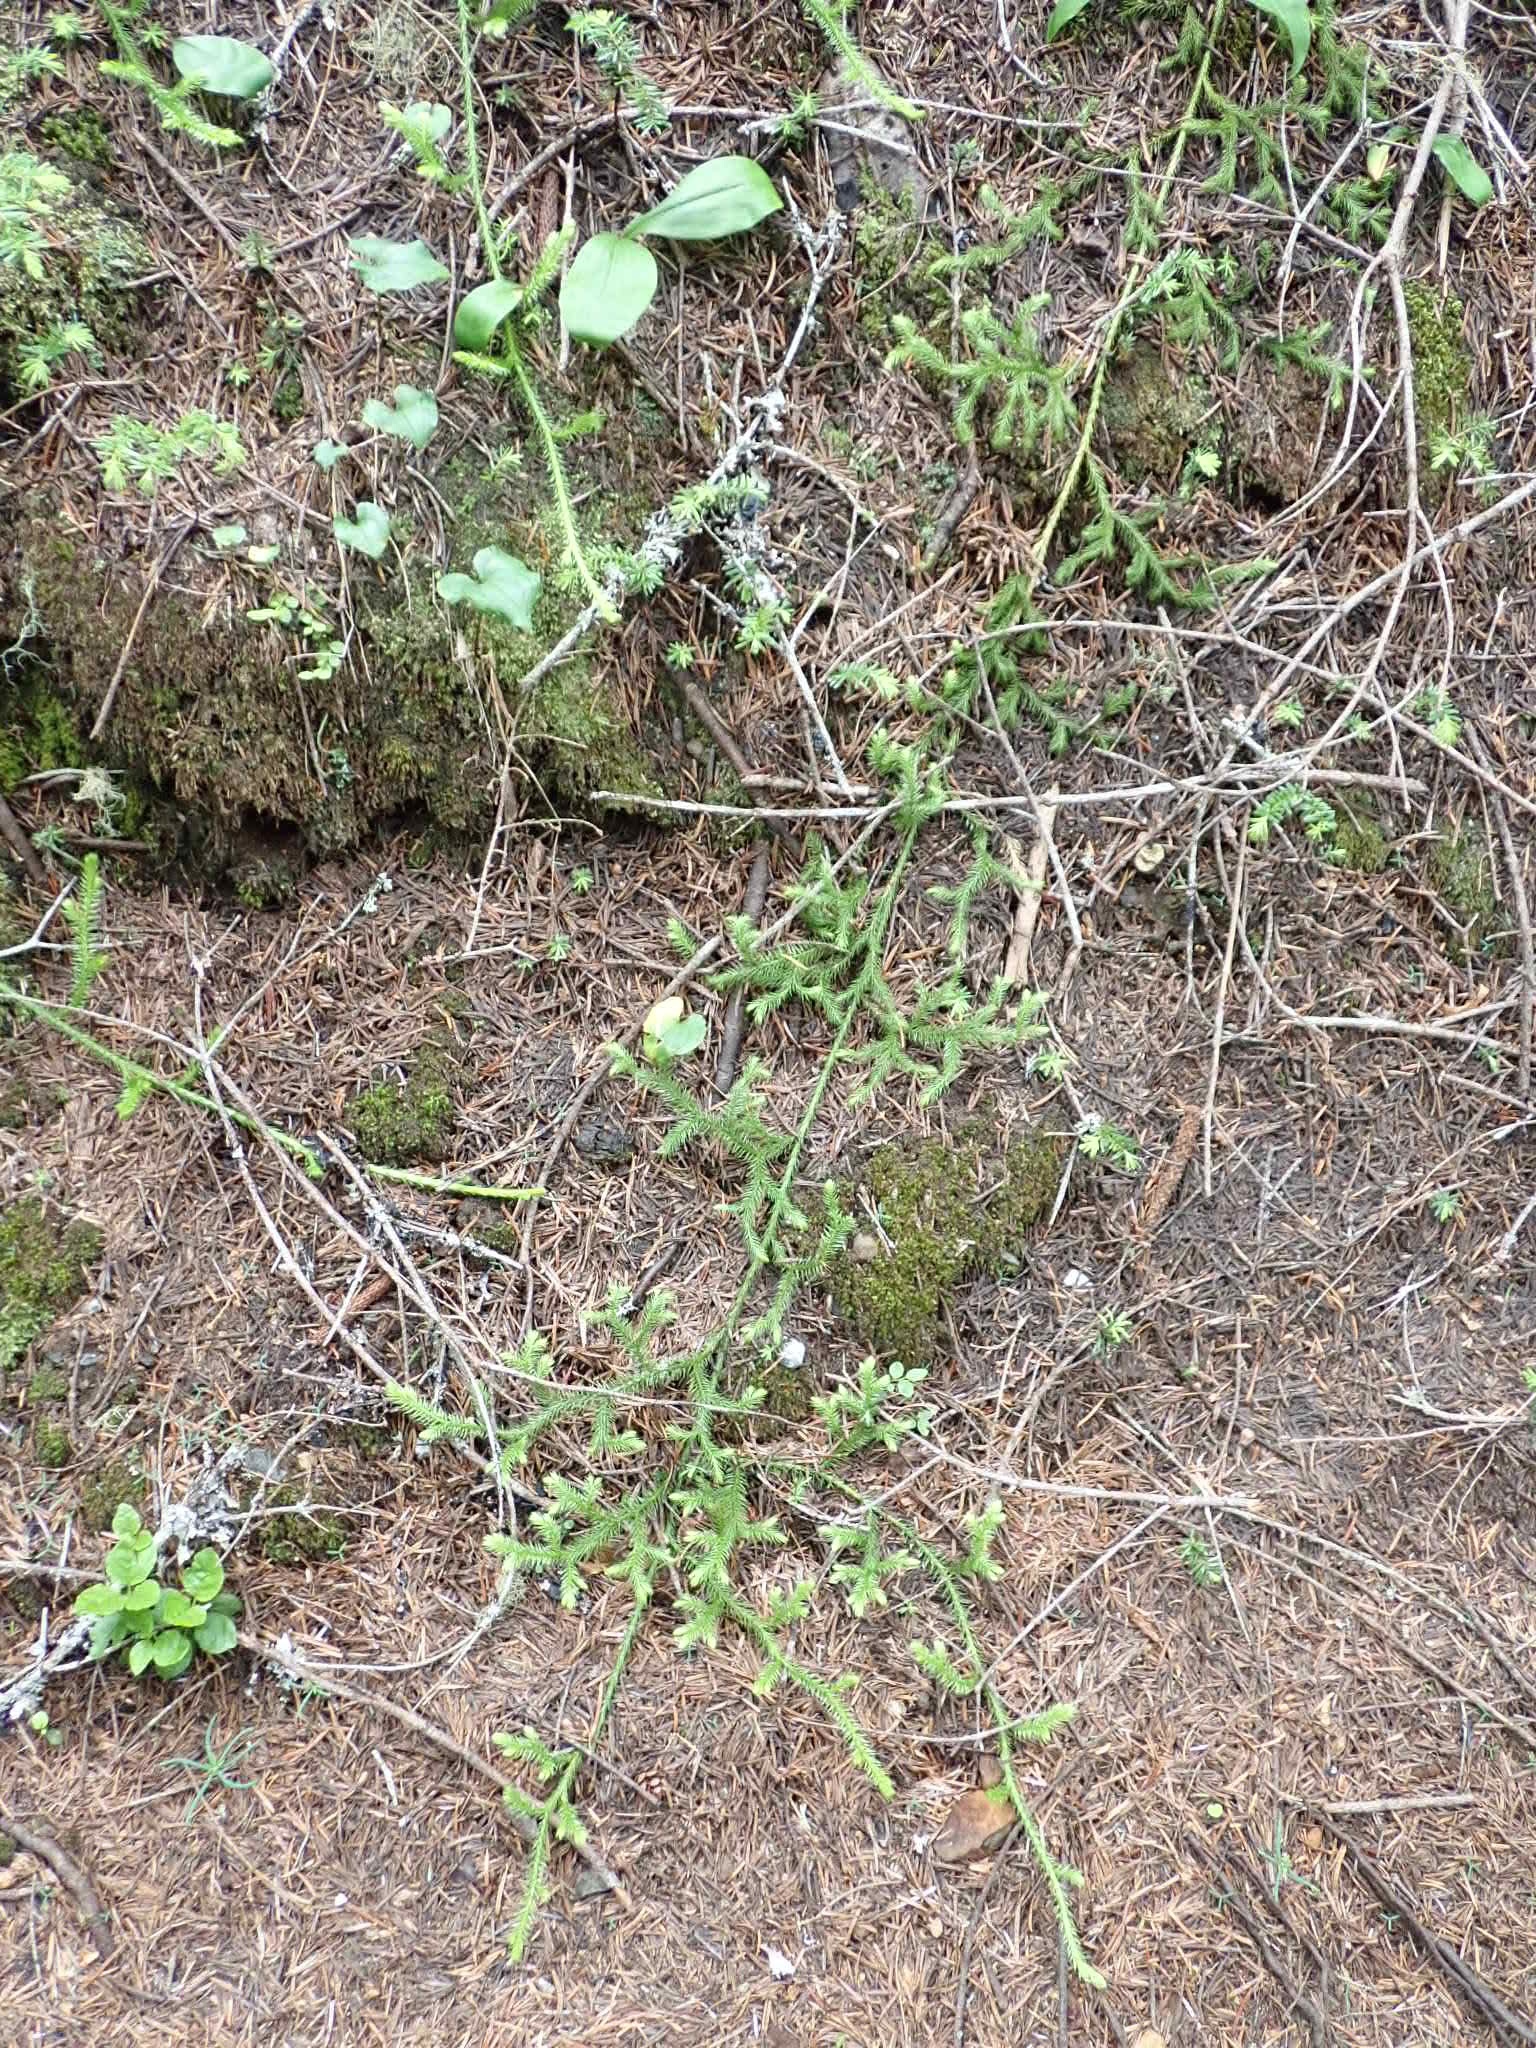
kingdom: Plantae
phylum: Tracheophyta
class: Lycopodiopsida
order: Lycopodiales
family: Lycopodiaceae
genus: Lycopodium
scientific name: Lycopodium clavatum
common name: Stag's-horn clubmoss
